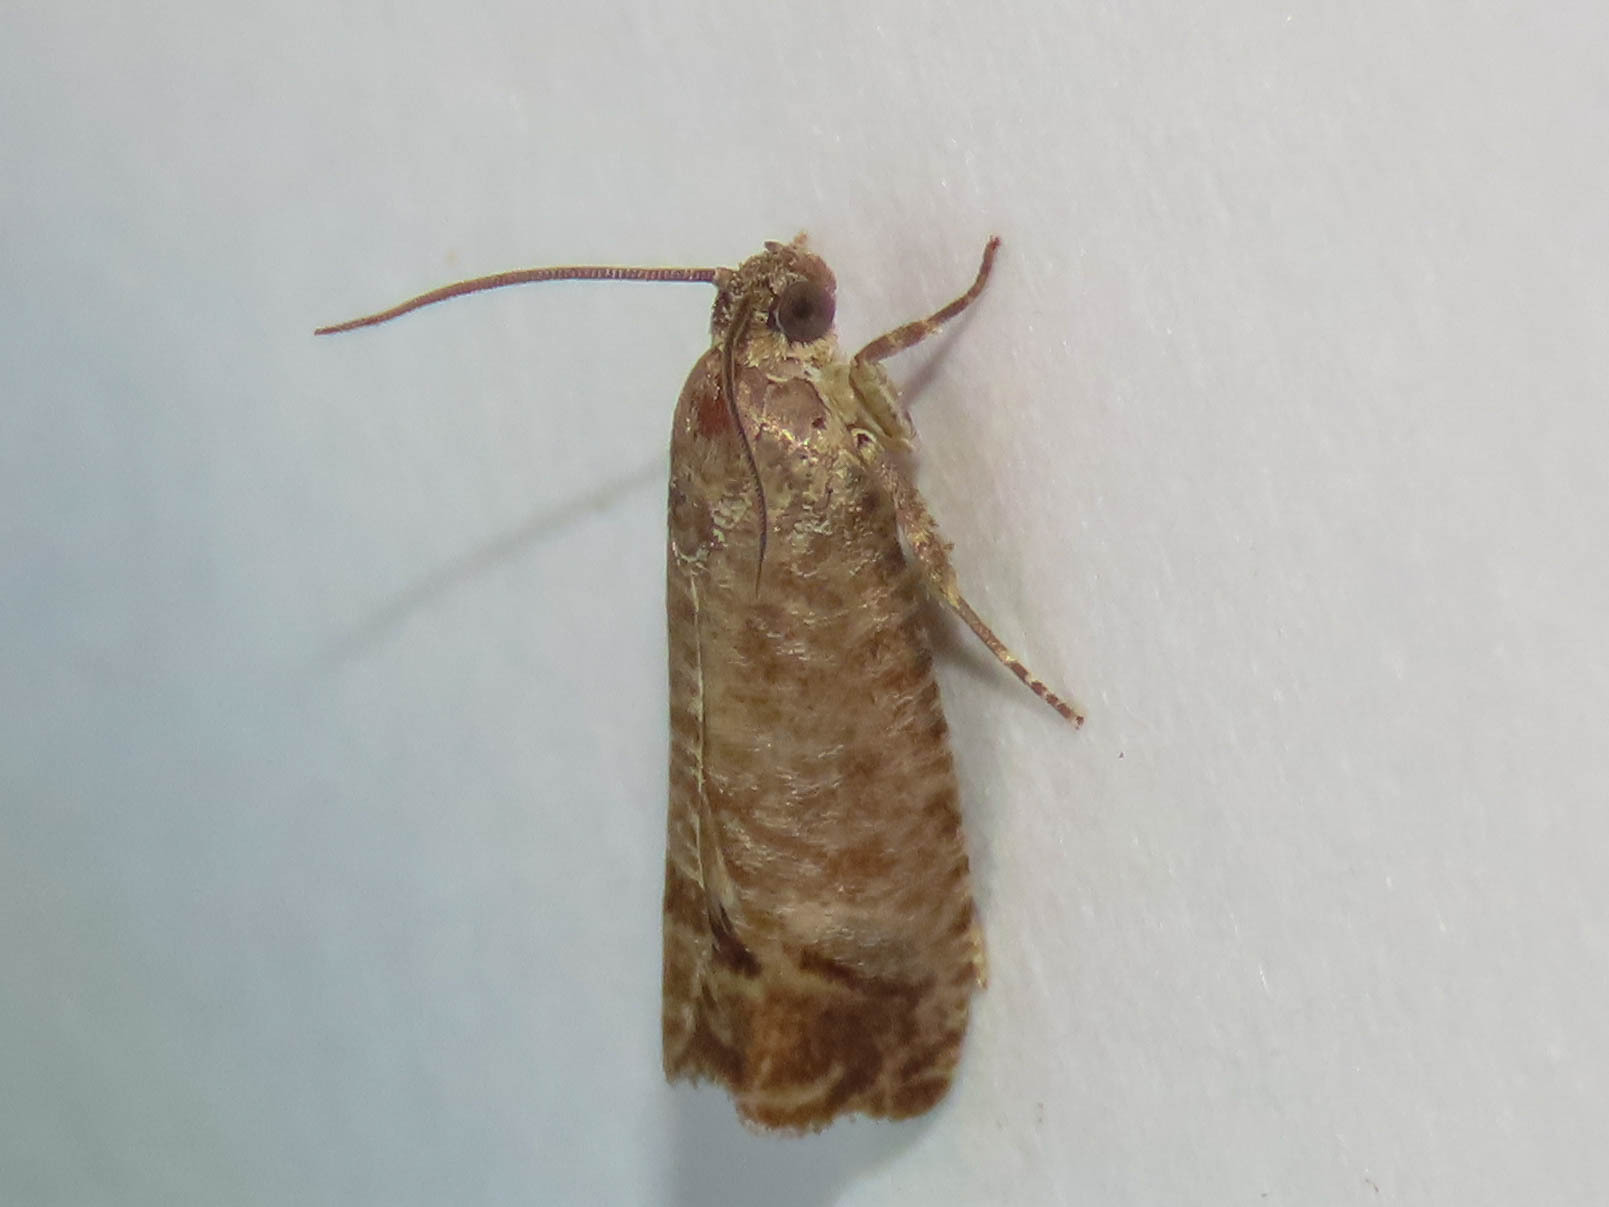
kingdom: Animalia
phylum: Arthropoda
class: Insecta
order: Lepidoptera
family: Tortricidae
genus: Cydia
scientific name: Cydia pomonella
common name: Codling moth
